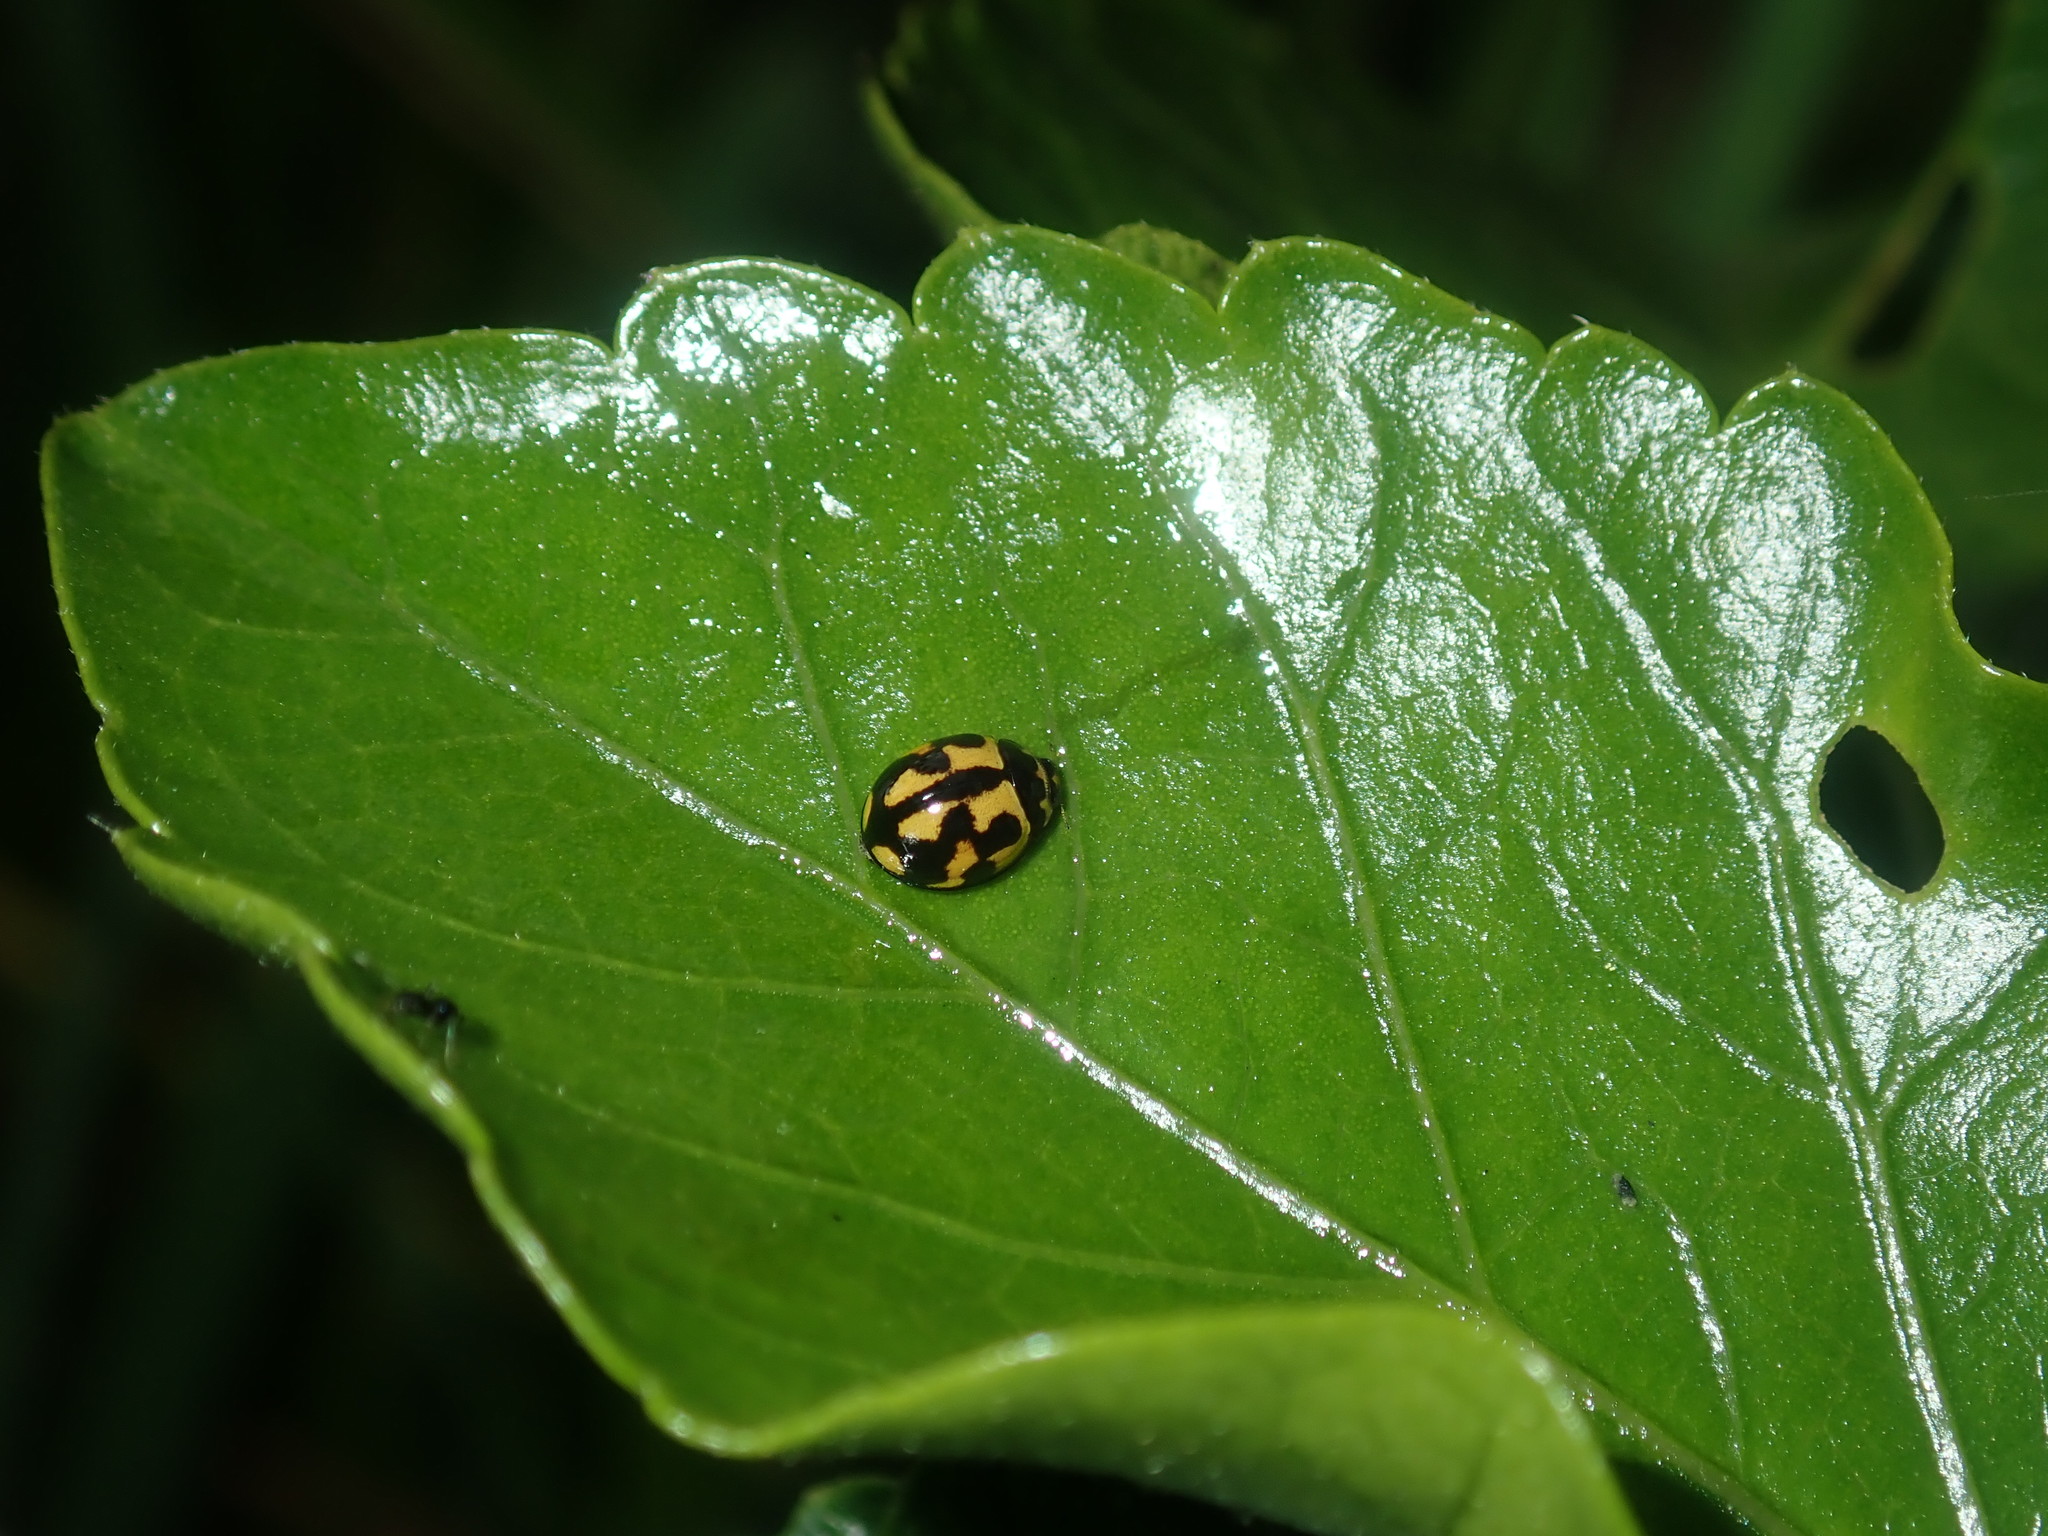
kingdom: Animalia
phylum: Arthropoda
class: Insecta
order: Coleoptera
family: Coccinellidae
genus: Coelophora
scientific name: Coelophora inaequalis
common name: Common australian lady beetle
